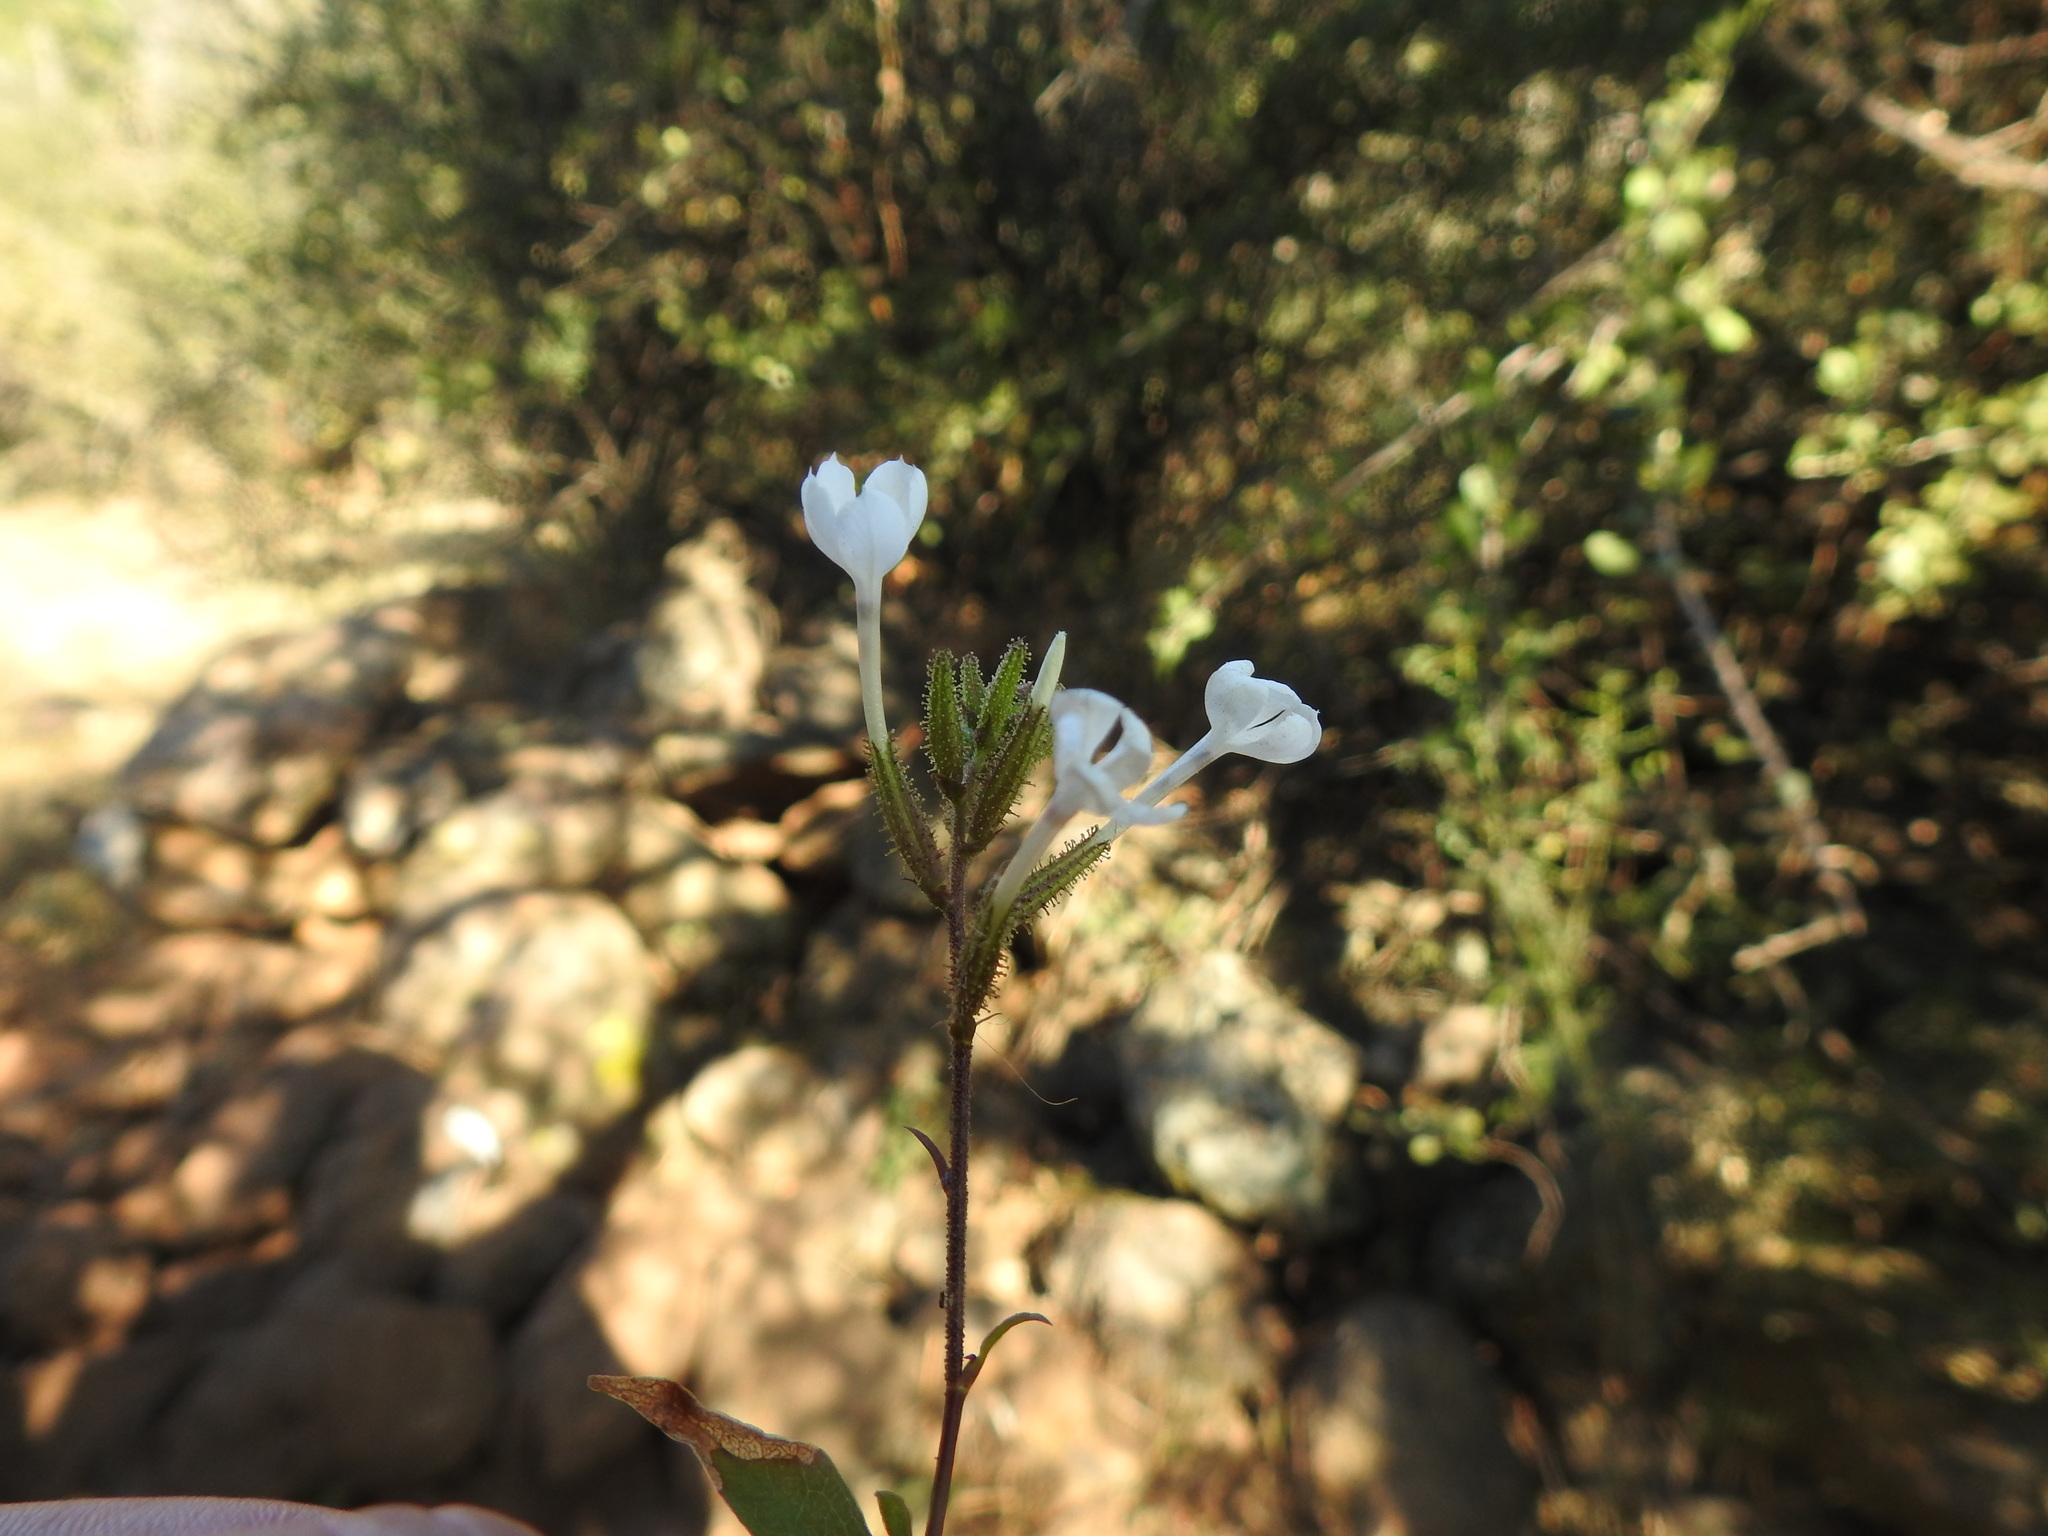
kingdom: Plantae
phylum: Tracheophyta
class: Magnoliopsida
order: Caryophyllales
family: Plumbaginaceae
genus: Plumbago
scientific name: Plumbago zeylanica
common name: Doctorbush
